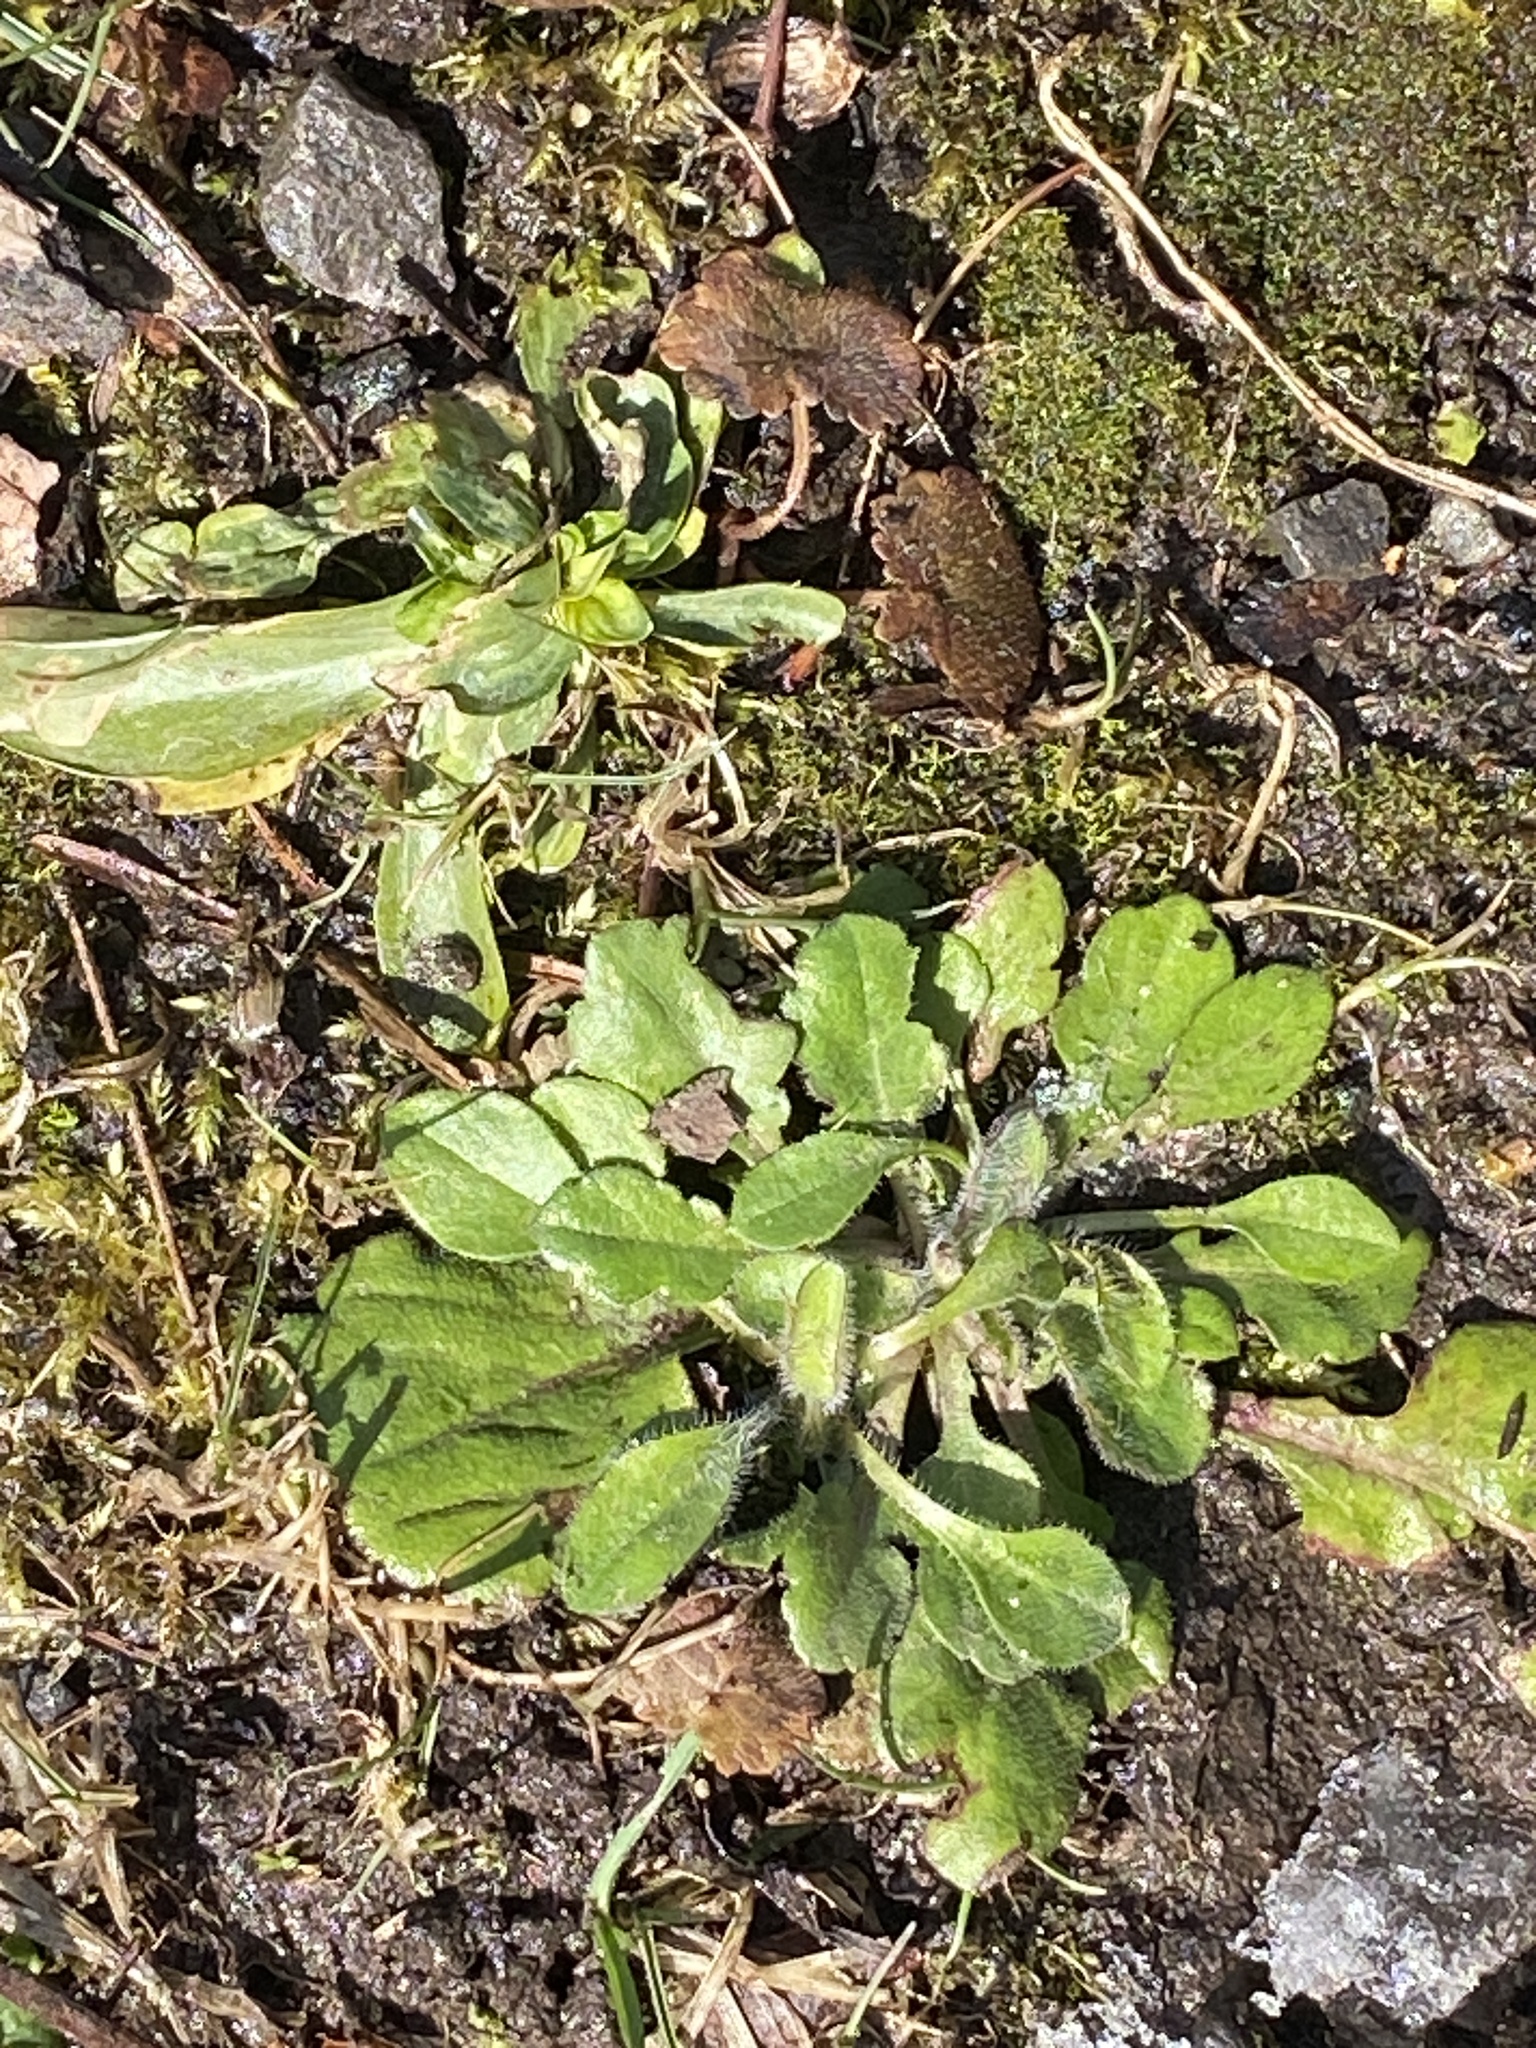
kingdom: Plantae
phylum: Tracheophyta
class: Magnoliopsida
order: Asterales
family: Asteraceae
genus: Erigeron
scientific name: Erigeron canadensis
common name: Canadian fleabane
